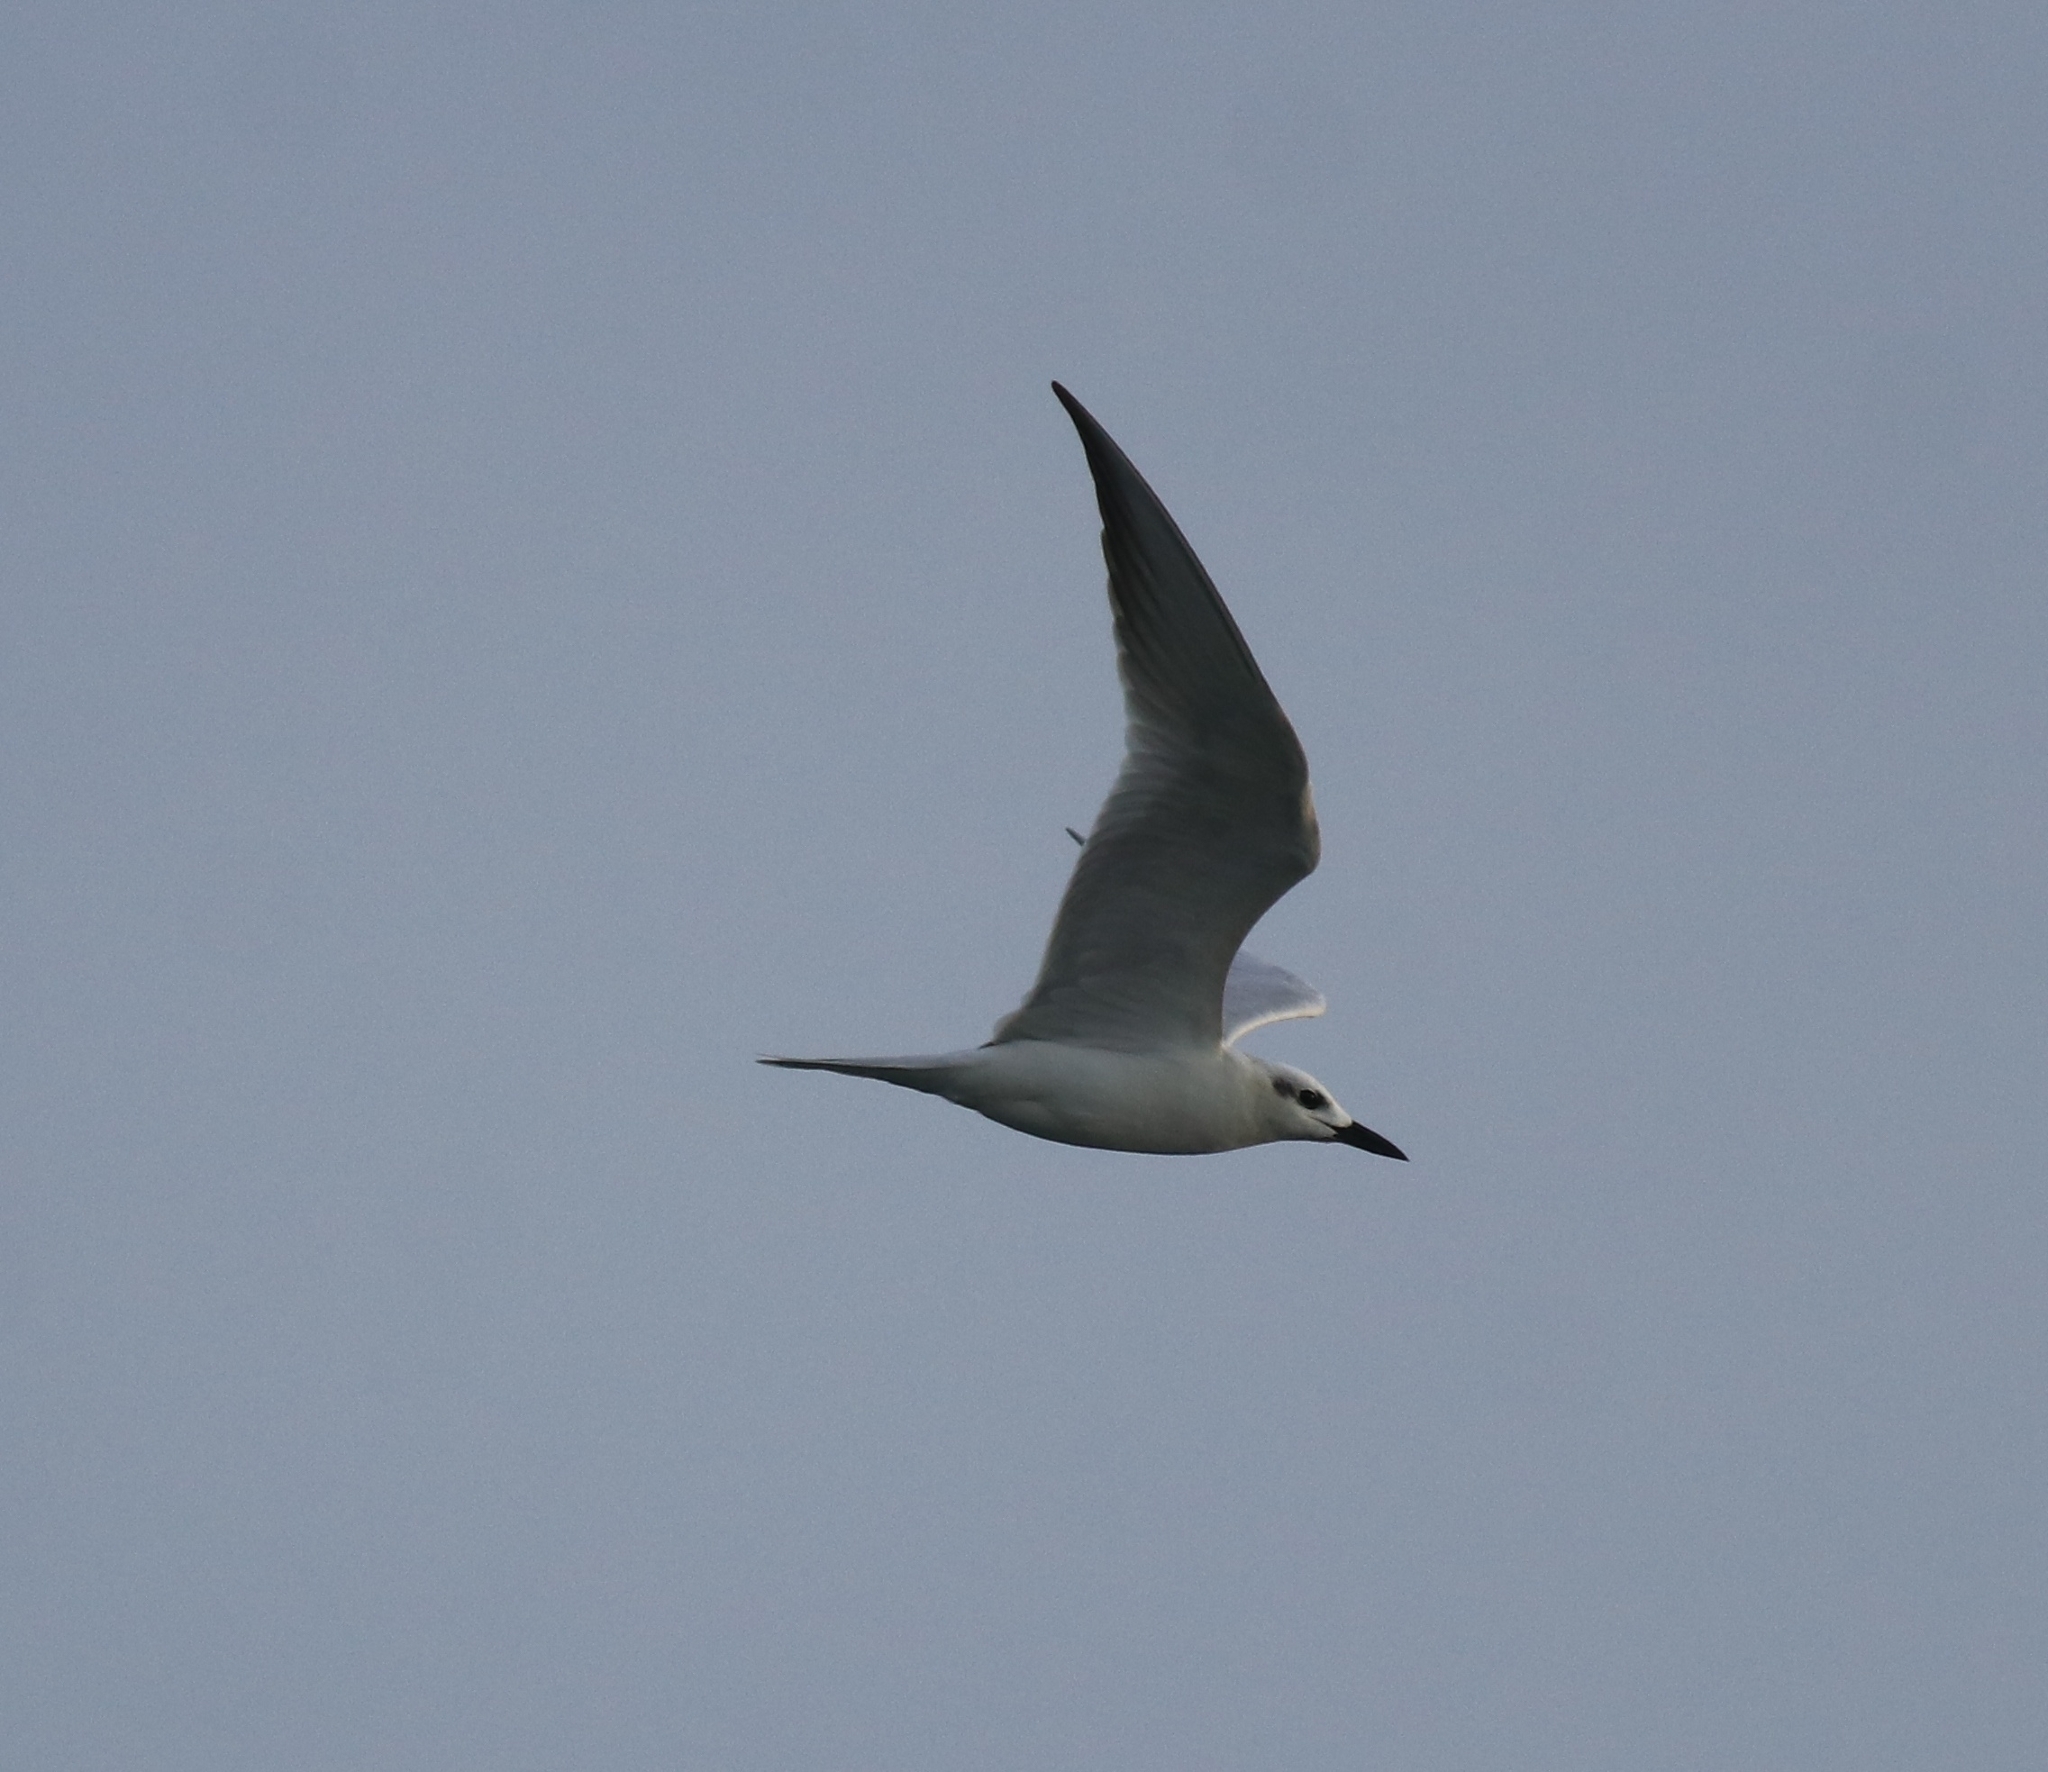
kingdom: Animalia
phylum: Chordata
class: Aves
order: Charadriiformes
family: Laridae
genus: Gelochelidon
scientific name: Gelochelidon nilotica
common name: Gull-billed tern
